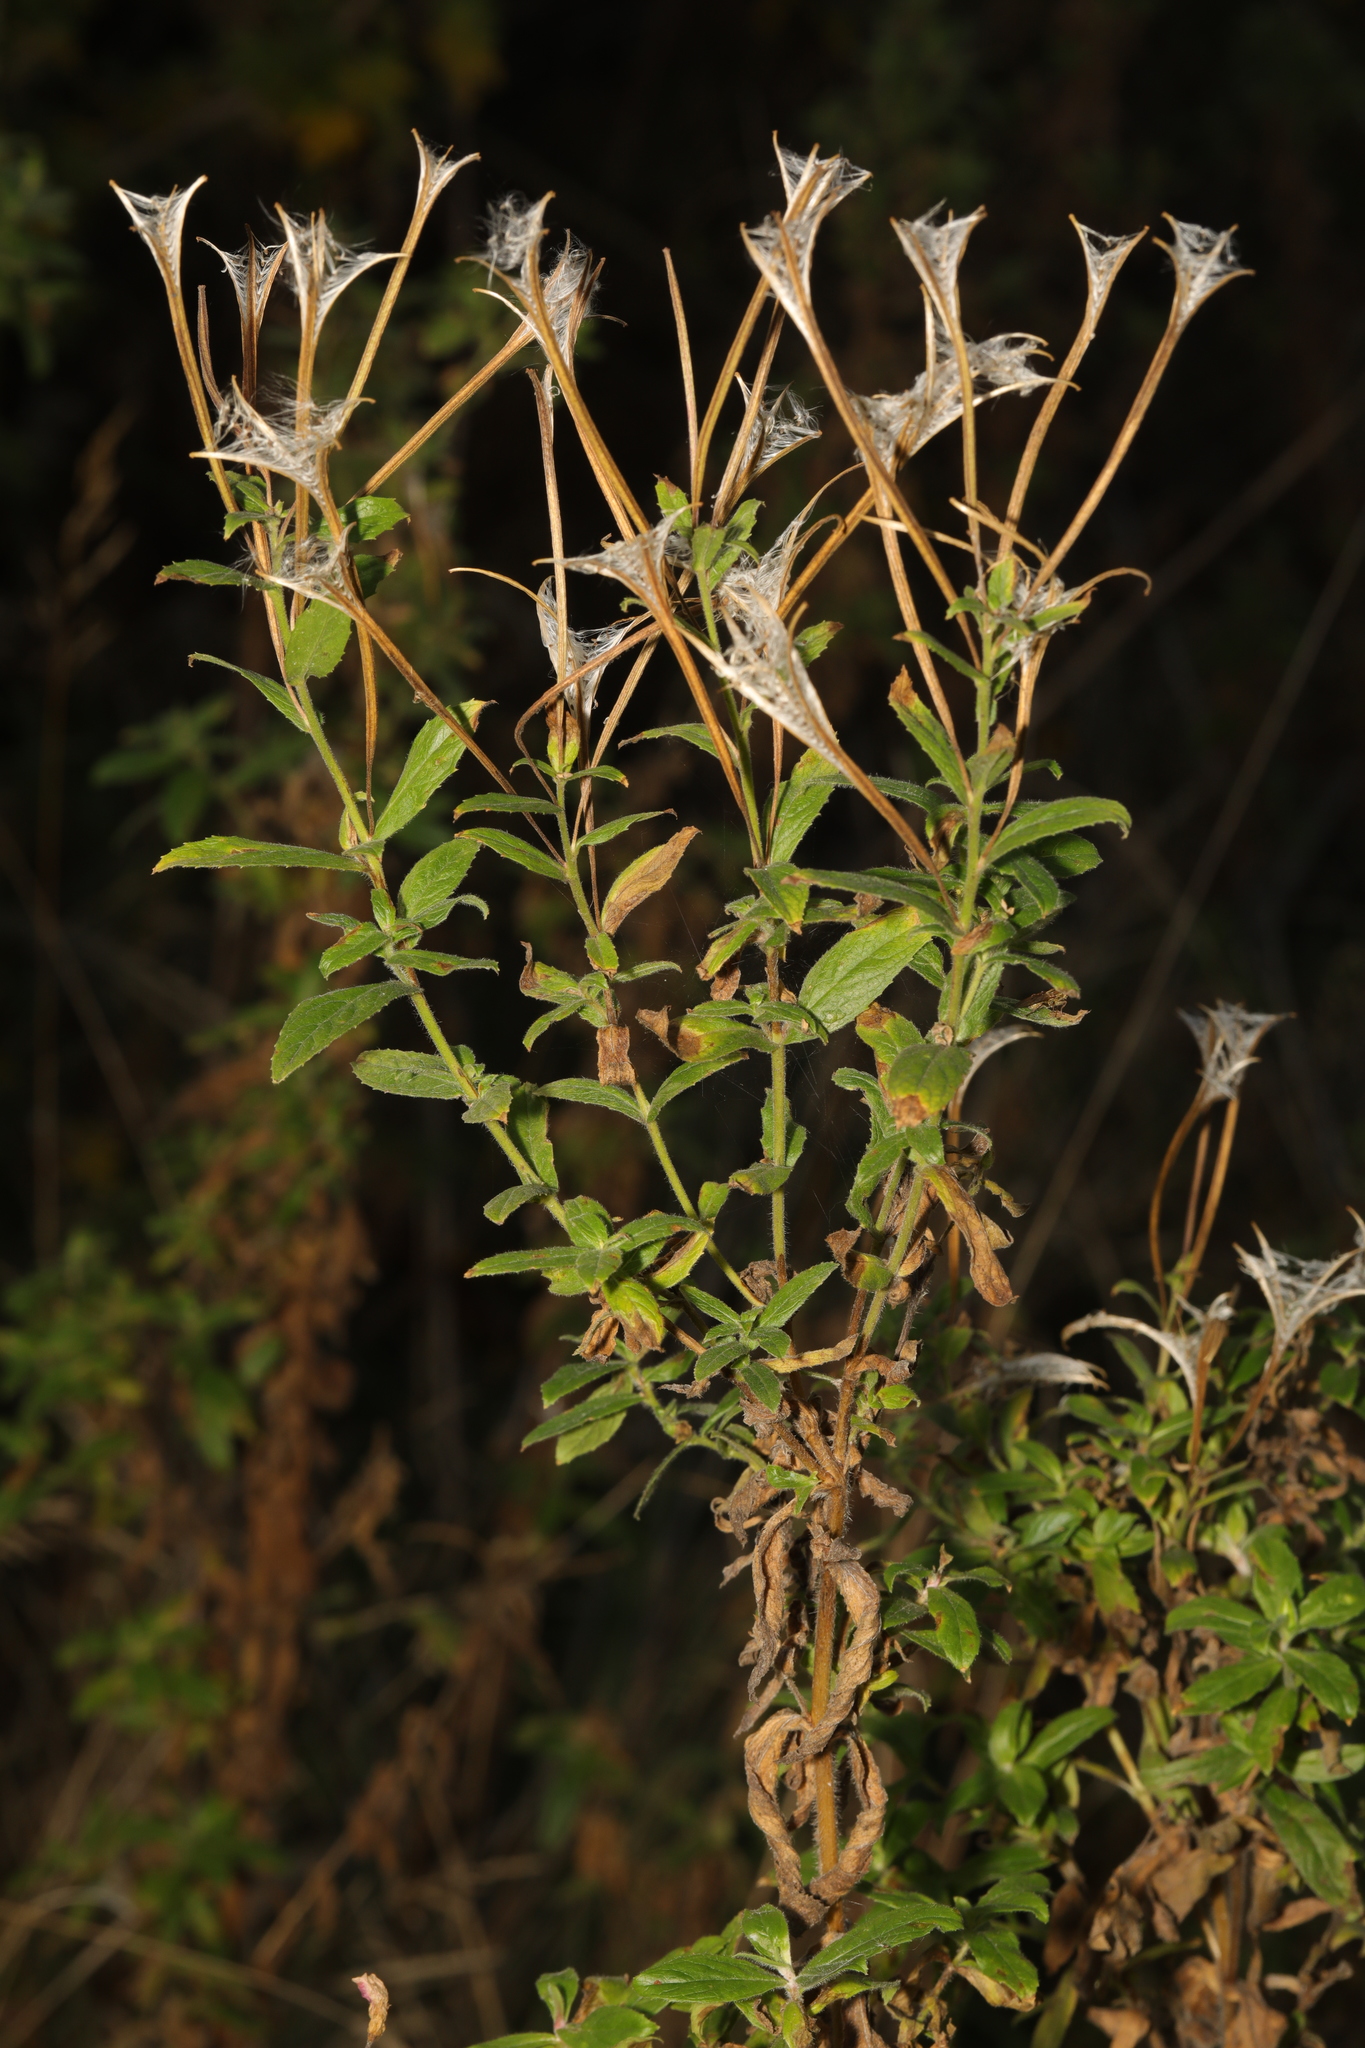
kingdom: Plantae
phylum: Tracheophyta
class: Magnoliopsida
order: Myrtales
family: Onagraceae
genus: Epilobium
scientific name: Epilobium hirsutum
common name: Great willowherb
